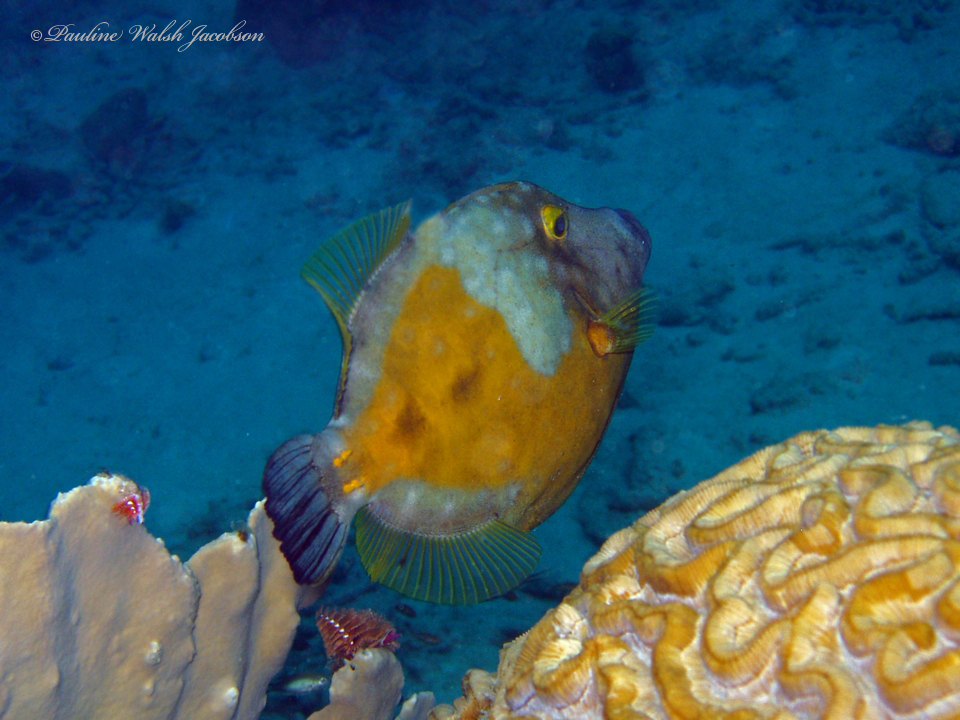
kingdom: Animalia
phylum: Chordata
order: Tetraodontiformes
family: Monacanthidae
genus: Cantherhines
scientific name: Cantherhines macrocerus
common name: Whitespotted filefish
